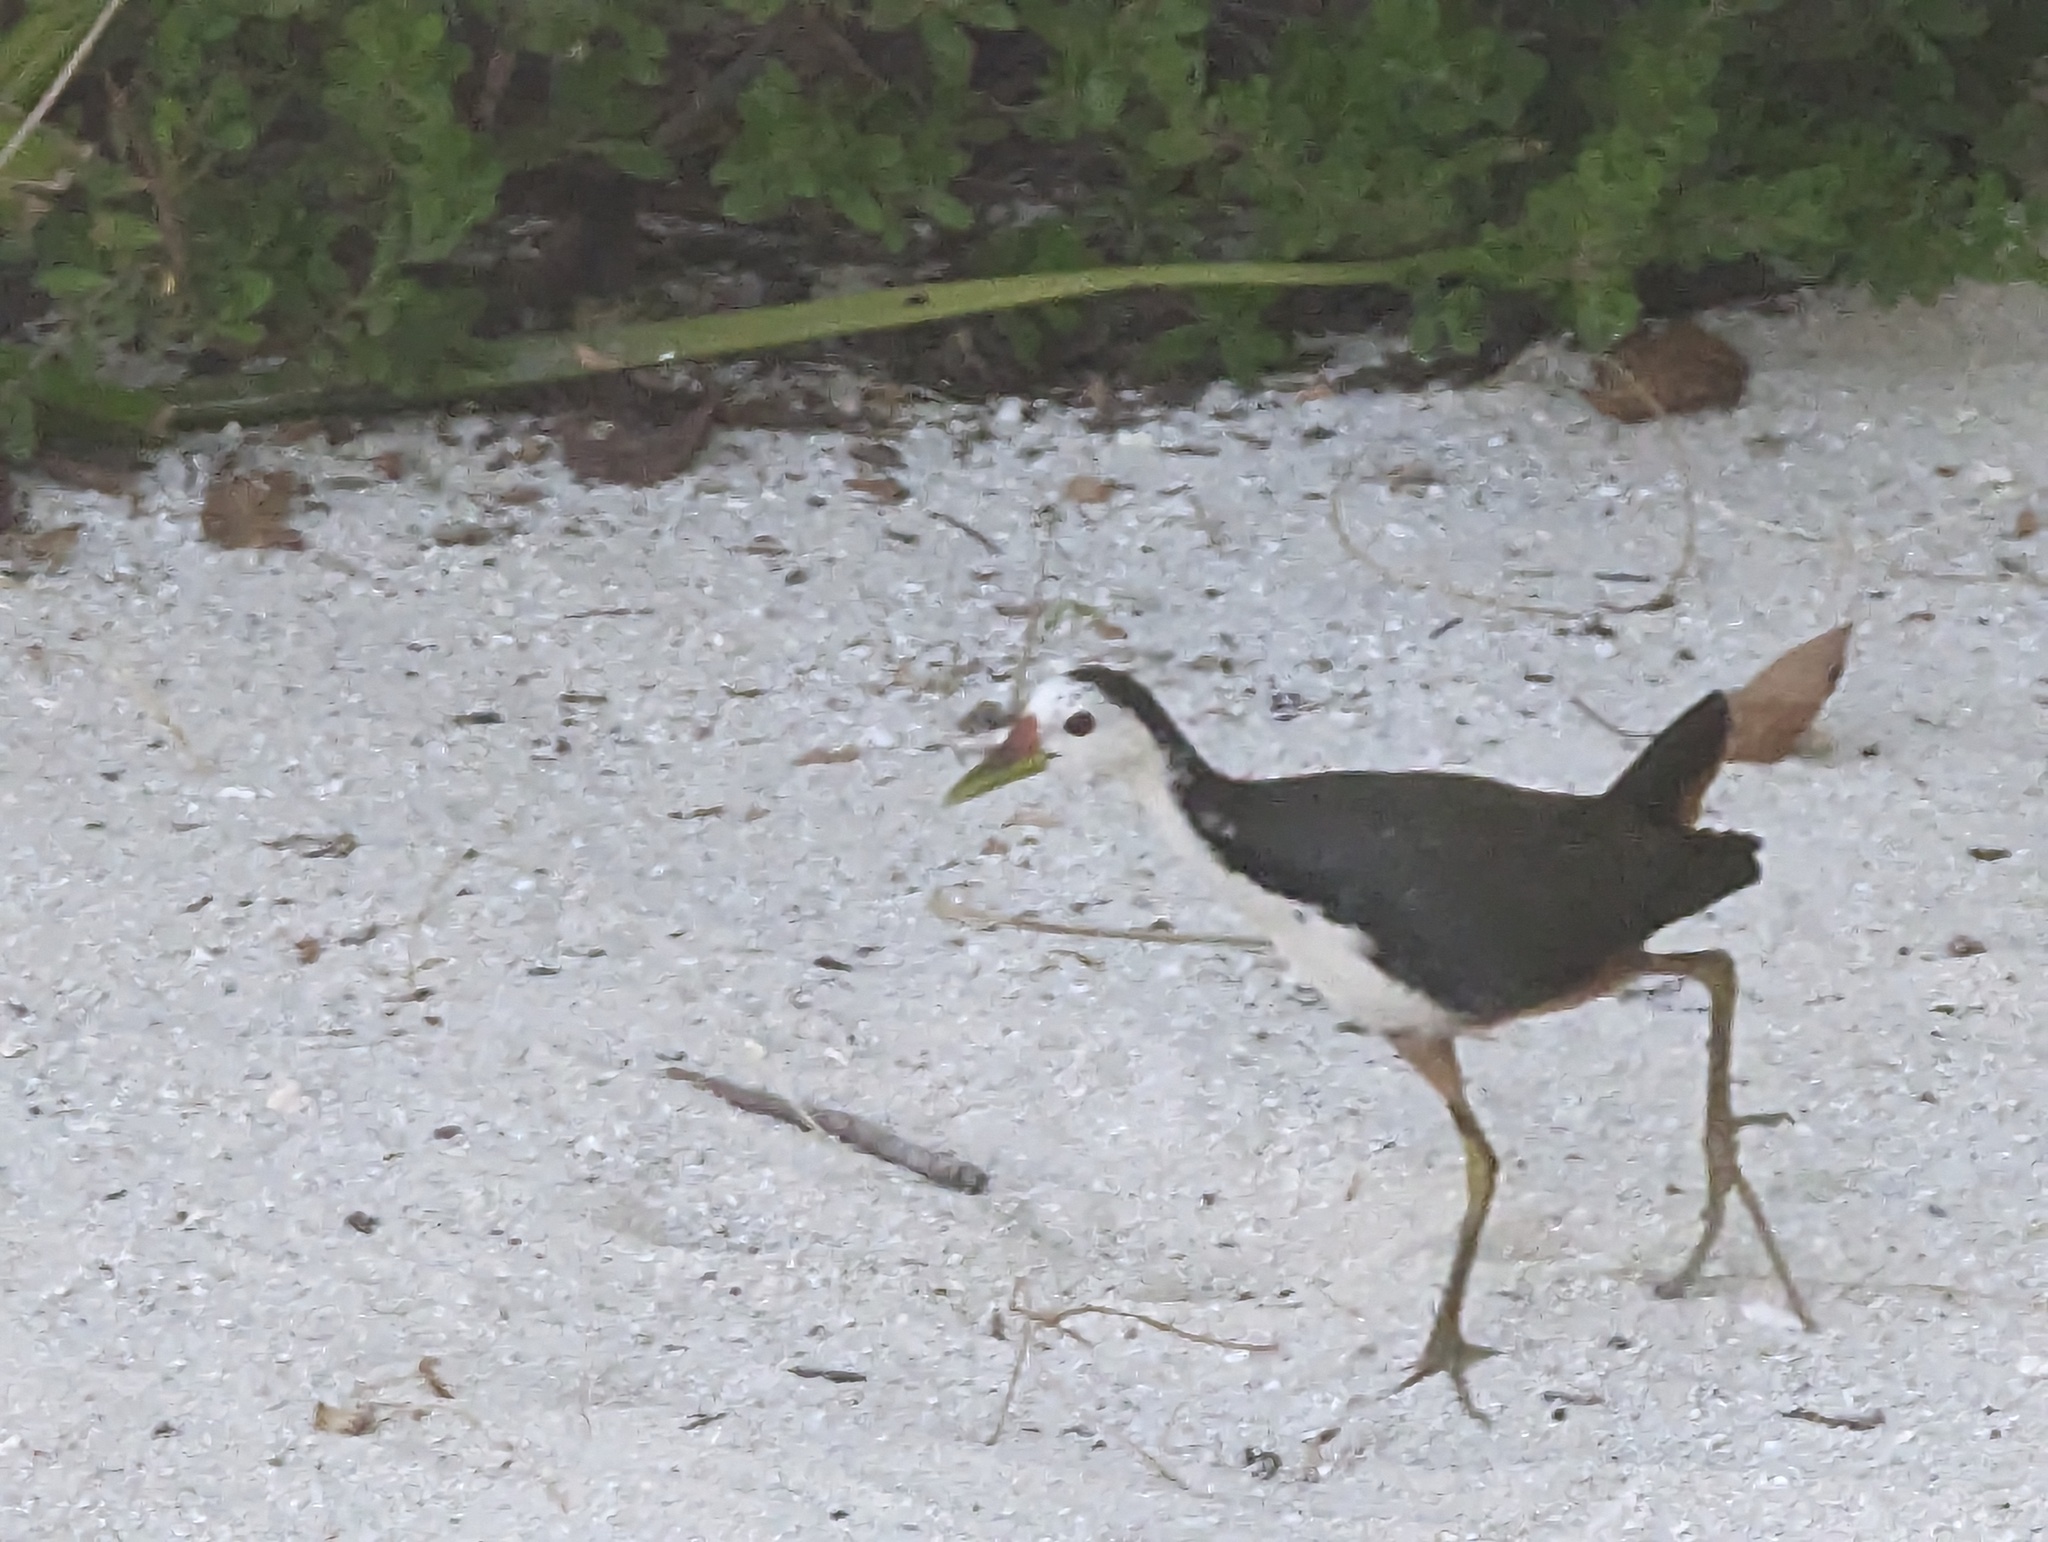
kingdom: Animalia
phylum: Chordata
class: Aves
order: Gruiformes
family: Rallidae
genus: Amaurornis
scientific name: Amaurornis phoenicurus
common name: White-breasted waterhen
